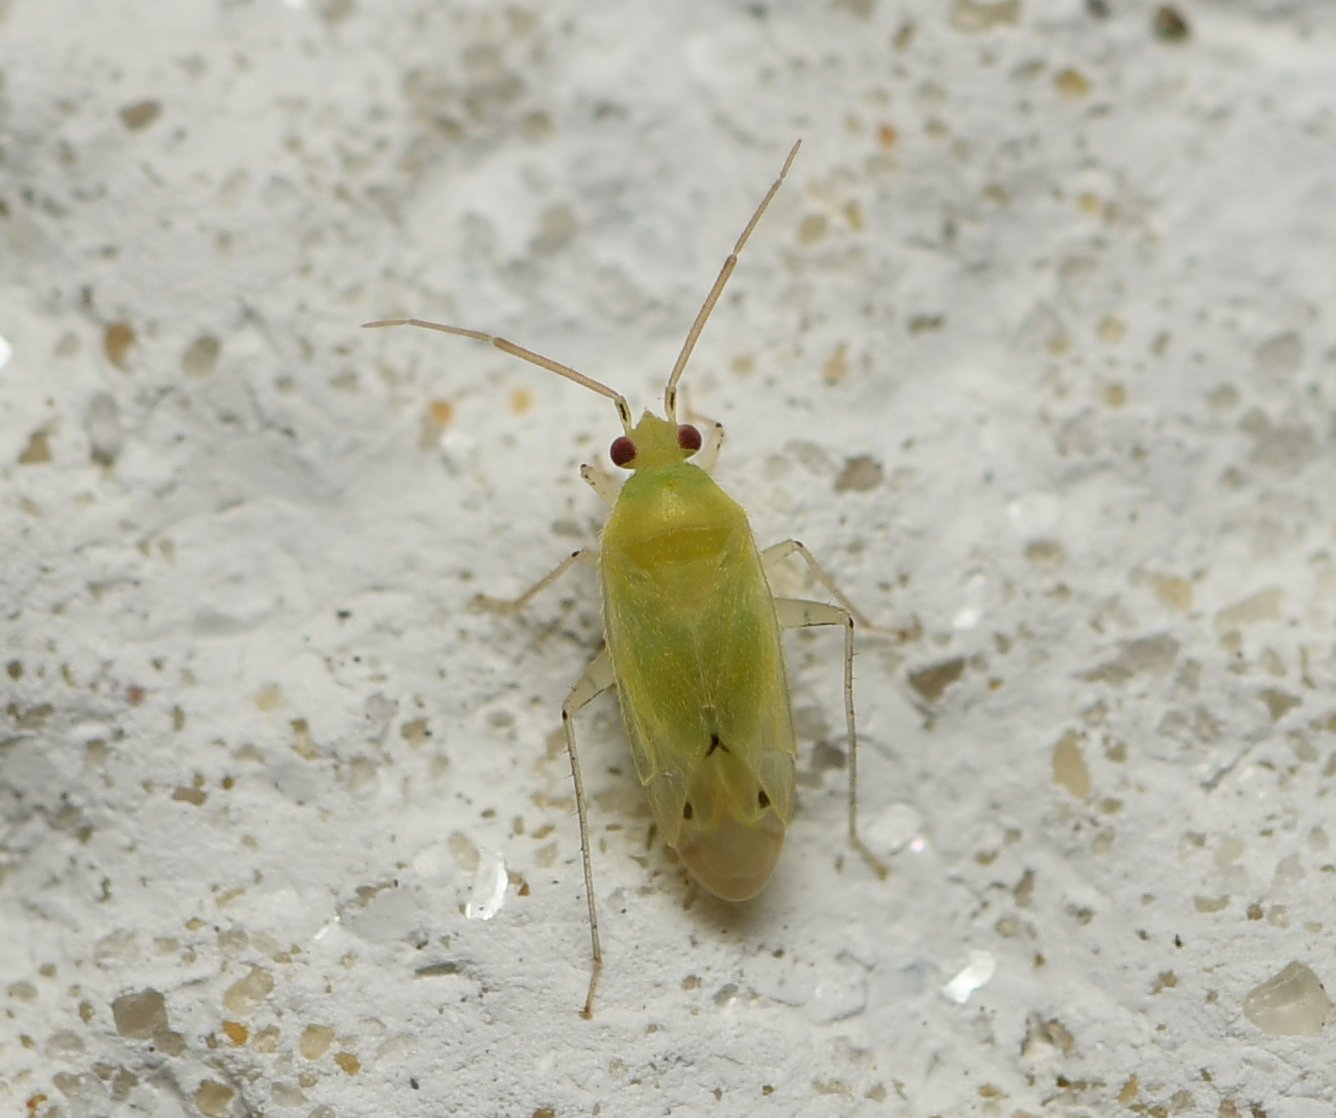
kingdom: Animalia
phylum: Arthropoda
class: Insecta
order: Hemiptera
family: Miridae
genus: Americodema
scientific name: Americodema nigrolineatum
